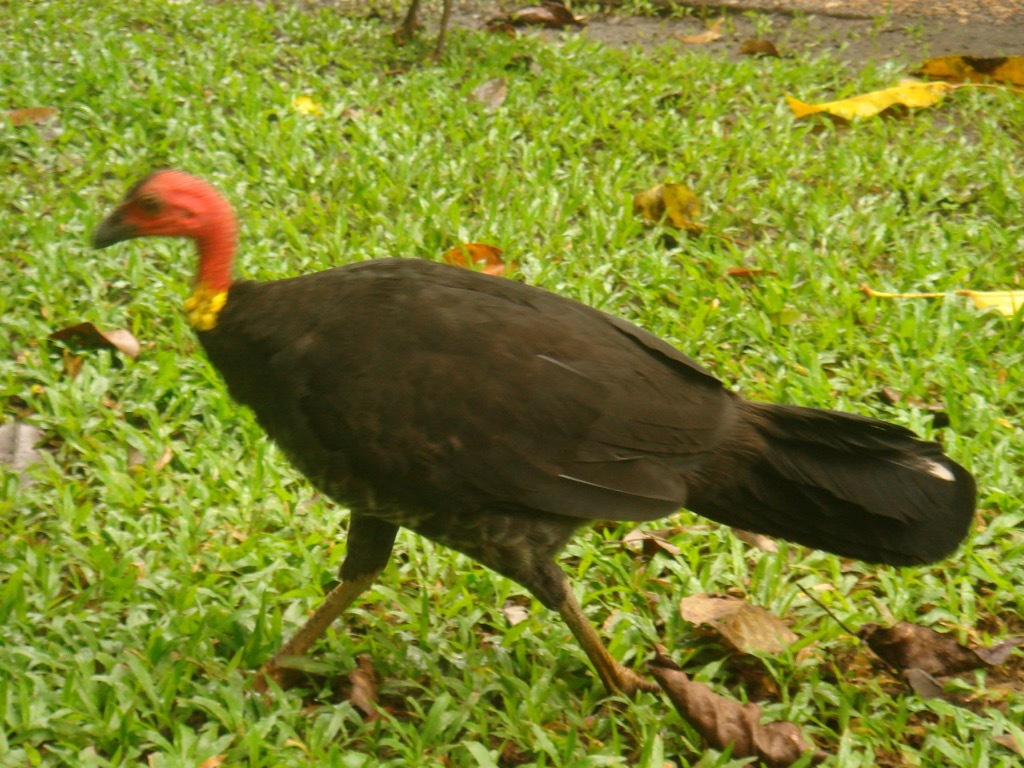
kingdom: Animalia
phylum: Chordata
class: Aves
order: Galliformes
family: Megapodiidae
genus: Alectura
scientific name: Alectura lathami
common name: Australian brushturkey
